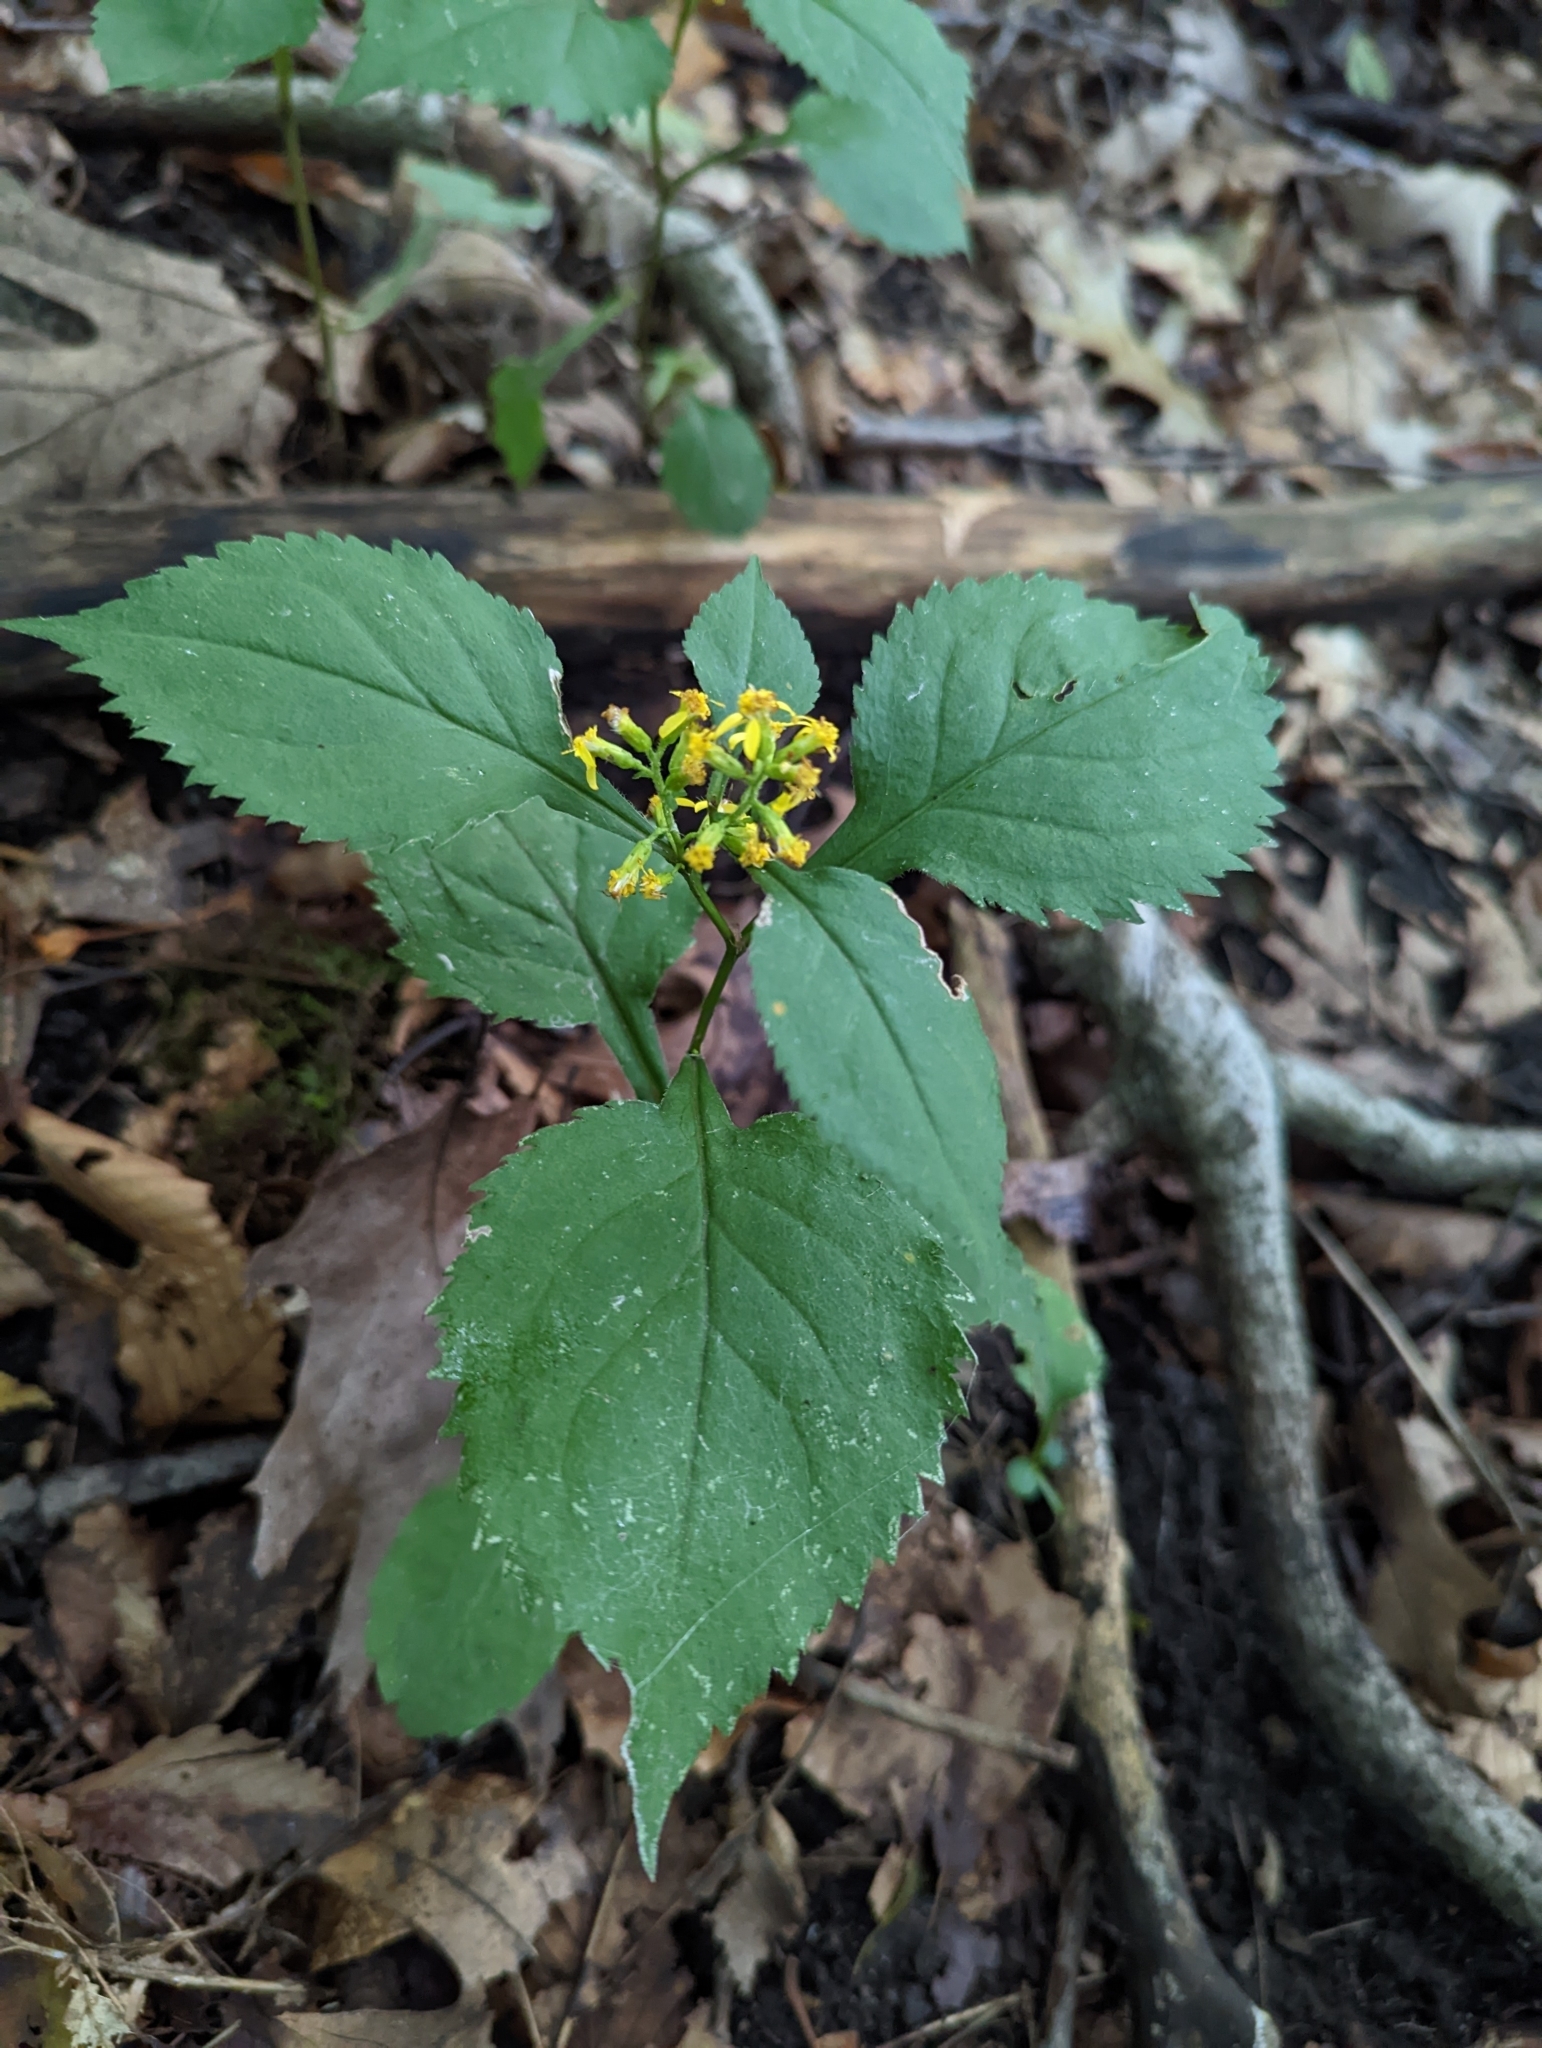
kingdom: Plantae
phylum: Tracheophyta
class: Magnoliopsida
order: Asterales
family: Asteraceae
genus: Solidago
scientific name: Solidago flexicaulis
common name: Zig-zag goldenrod
